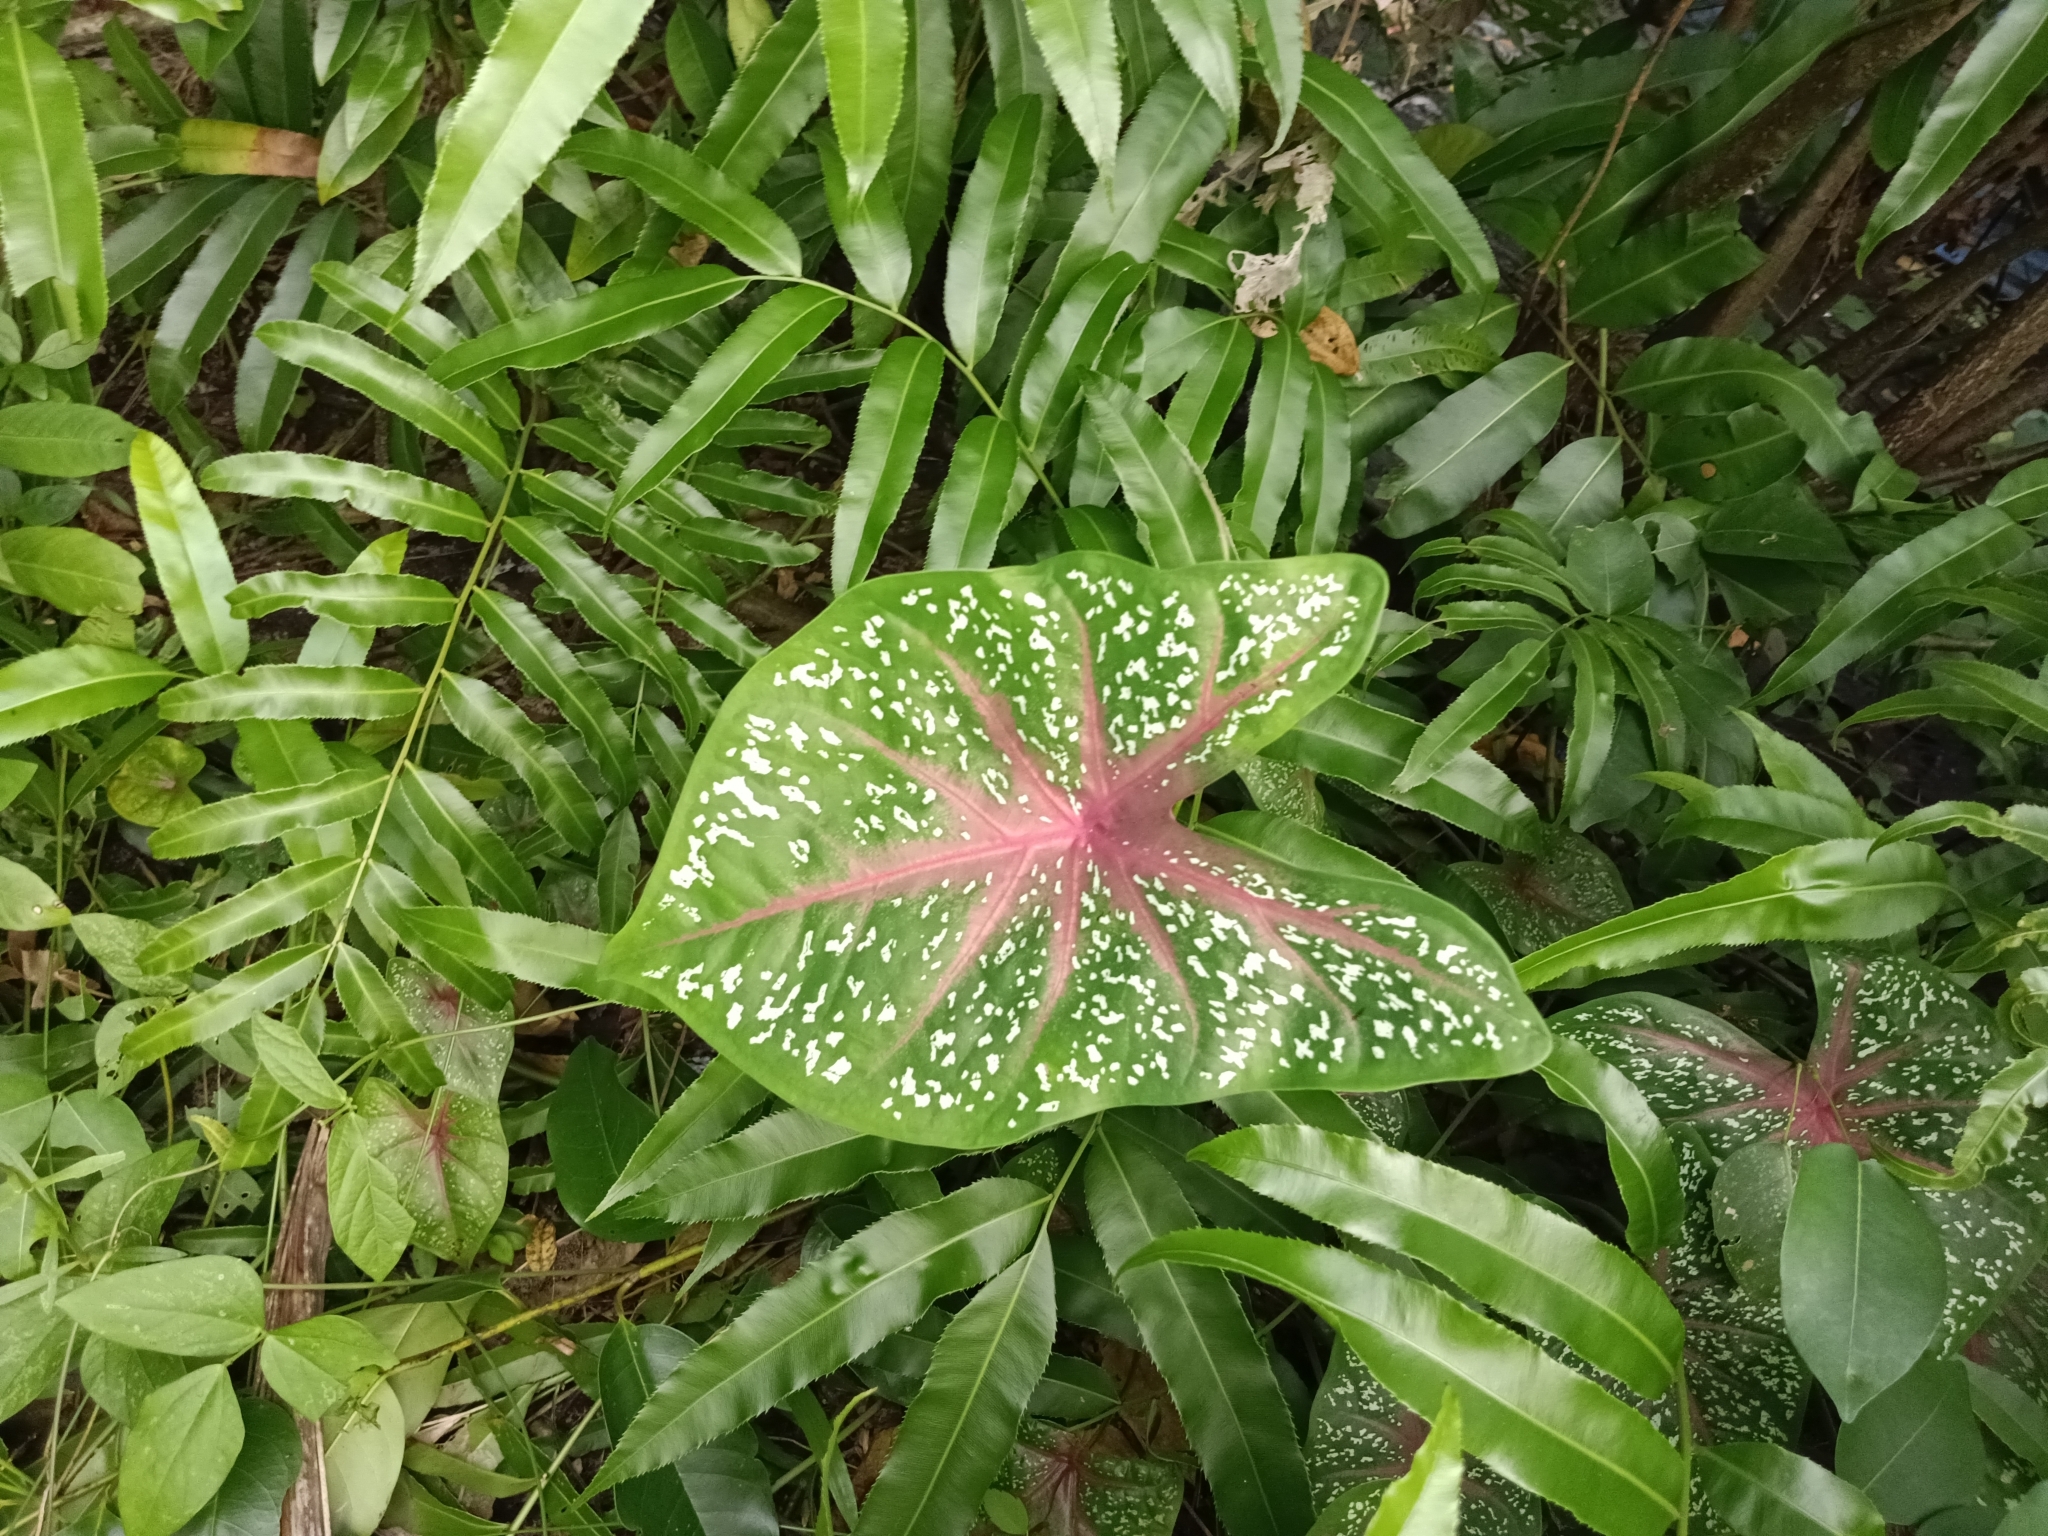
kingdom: Plantae
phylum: Tracheophyta
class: Liliopsida
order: Alismatales
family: Araceae
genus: Caladium
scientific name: Caladium bicolor
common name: Artist's pallet
